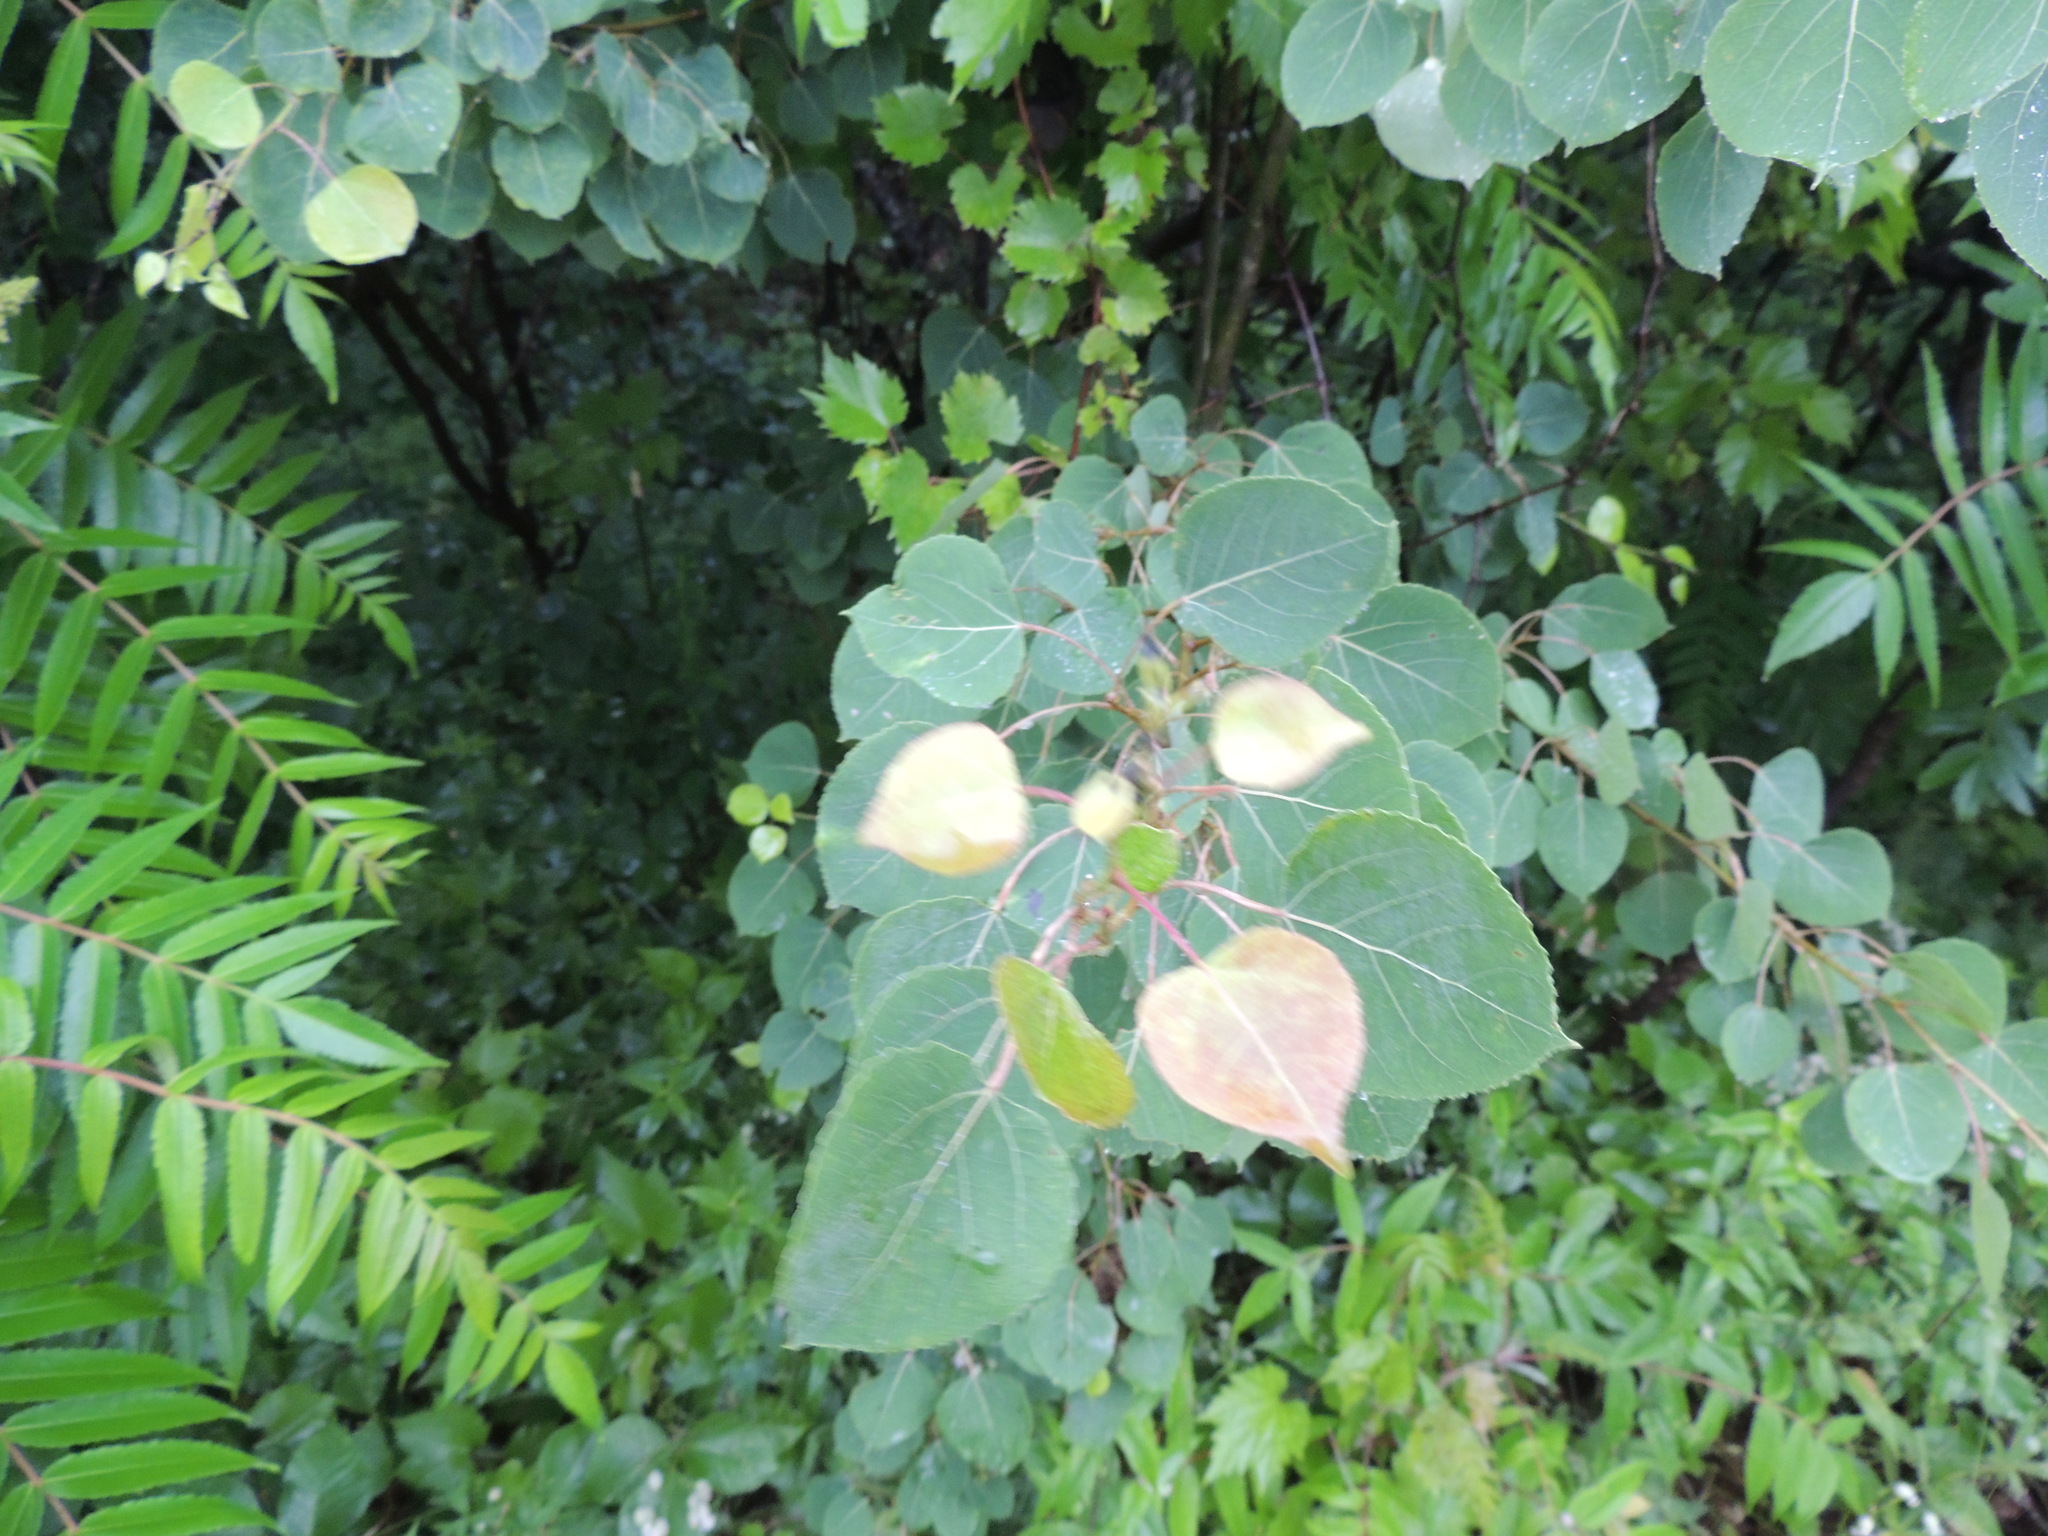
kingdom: Plantae
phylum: Tracheophyta
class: Magnoliopsida
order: Malpighiales
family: Salicaceae
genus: Populus
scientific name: Populus tremuloides
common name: Quaking aspen
